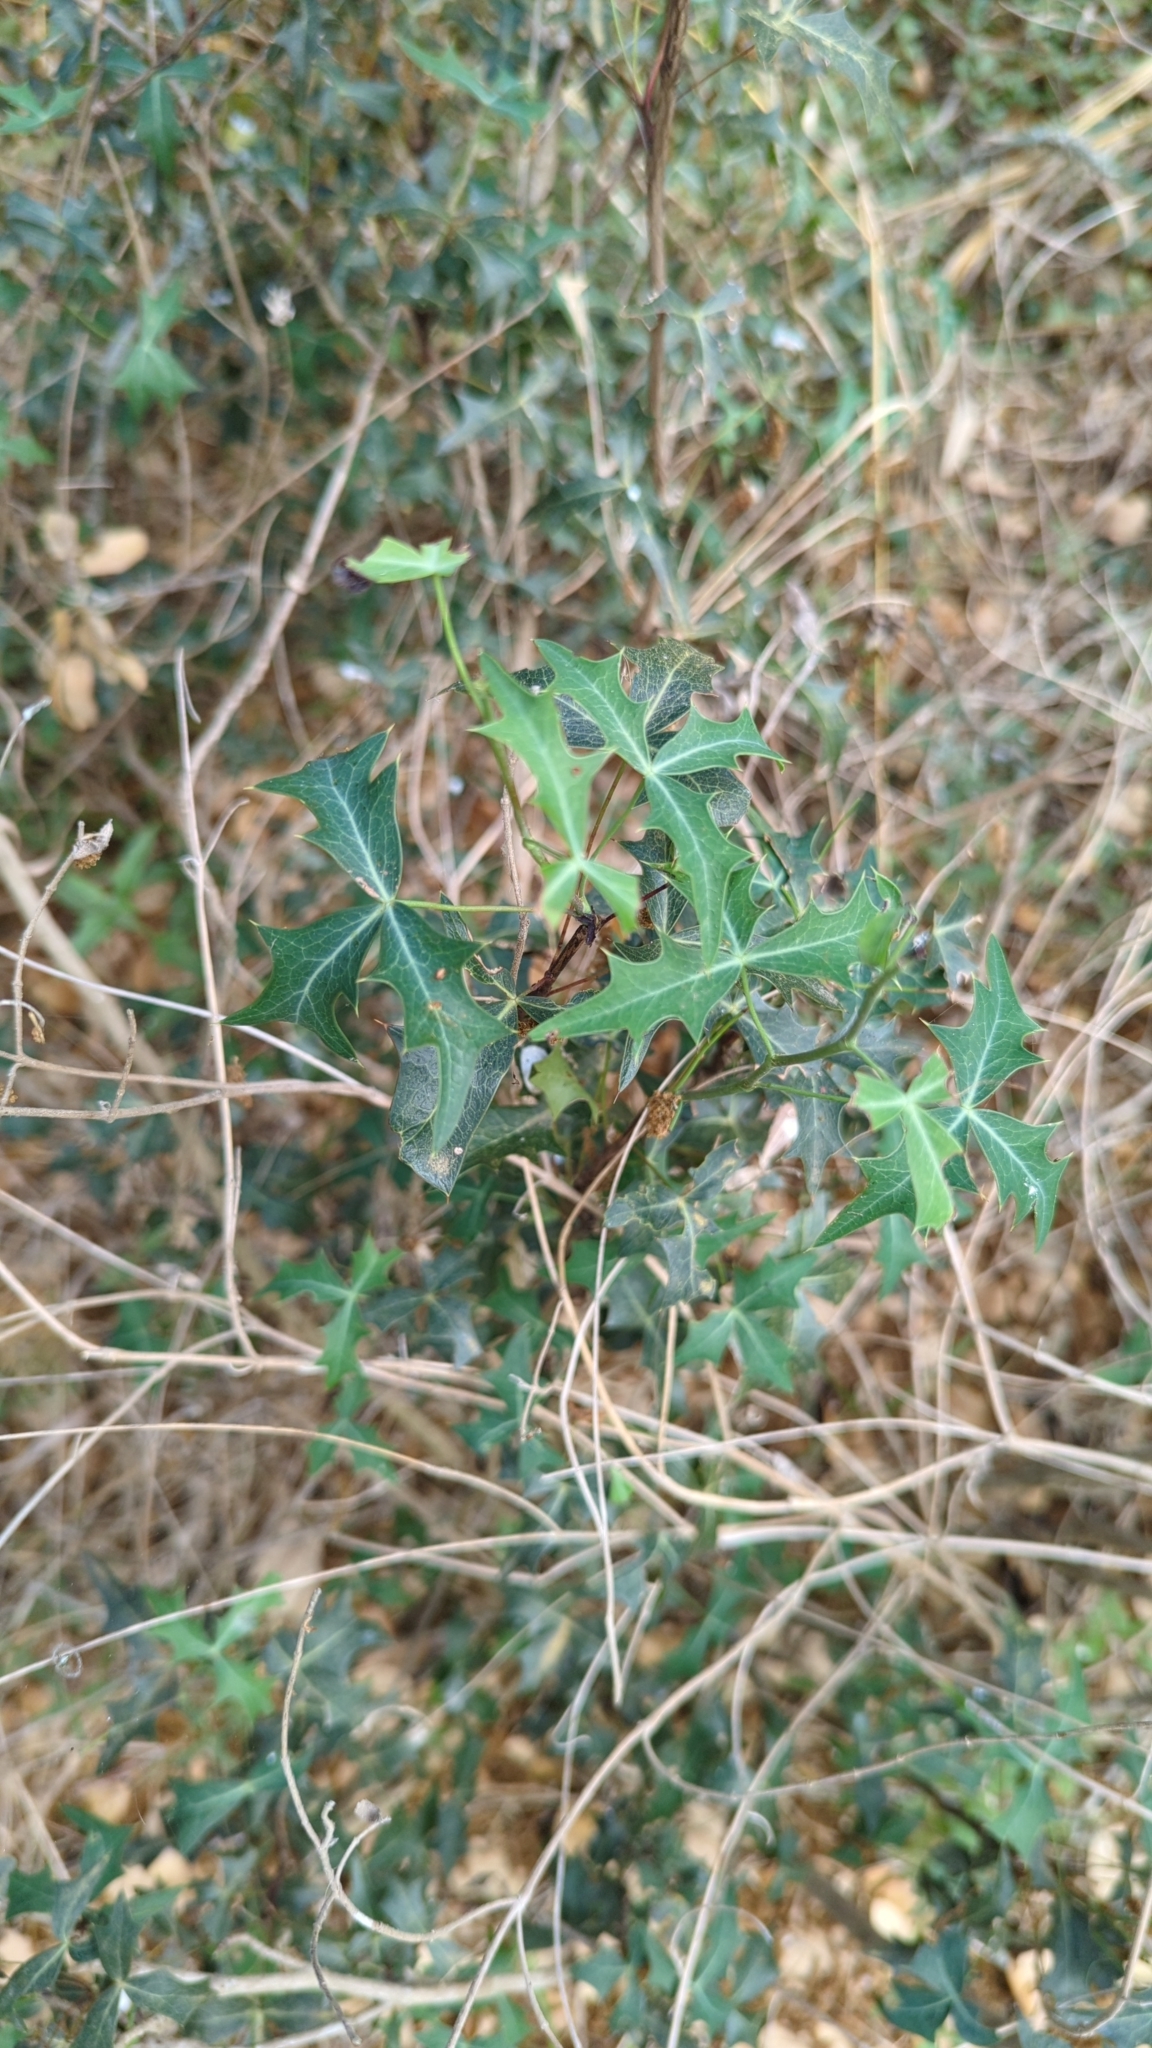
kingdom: Plantae
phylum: Tracheophyta
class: Magnoliopsida
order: Ranunculales
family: Berberidaceae
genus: Alloberberis
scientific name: Alloberberis trifoliolata
